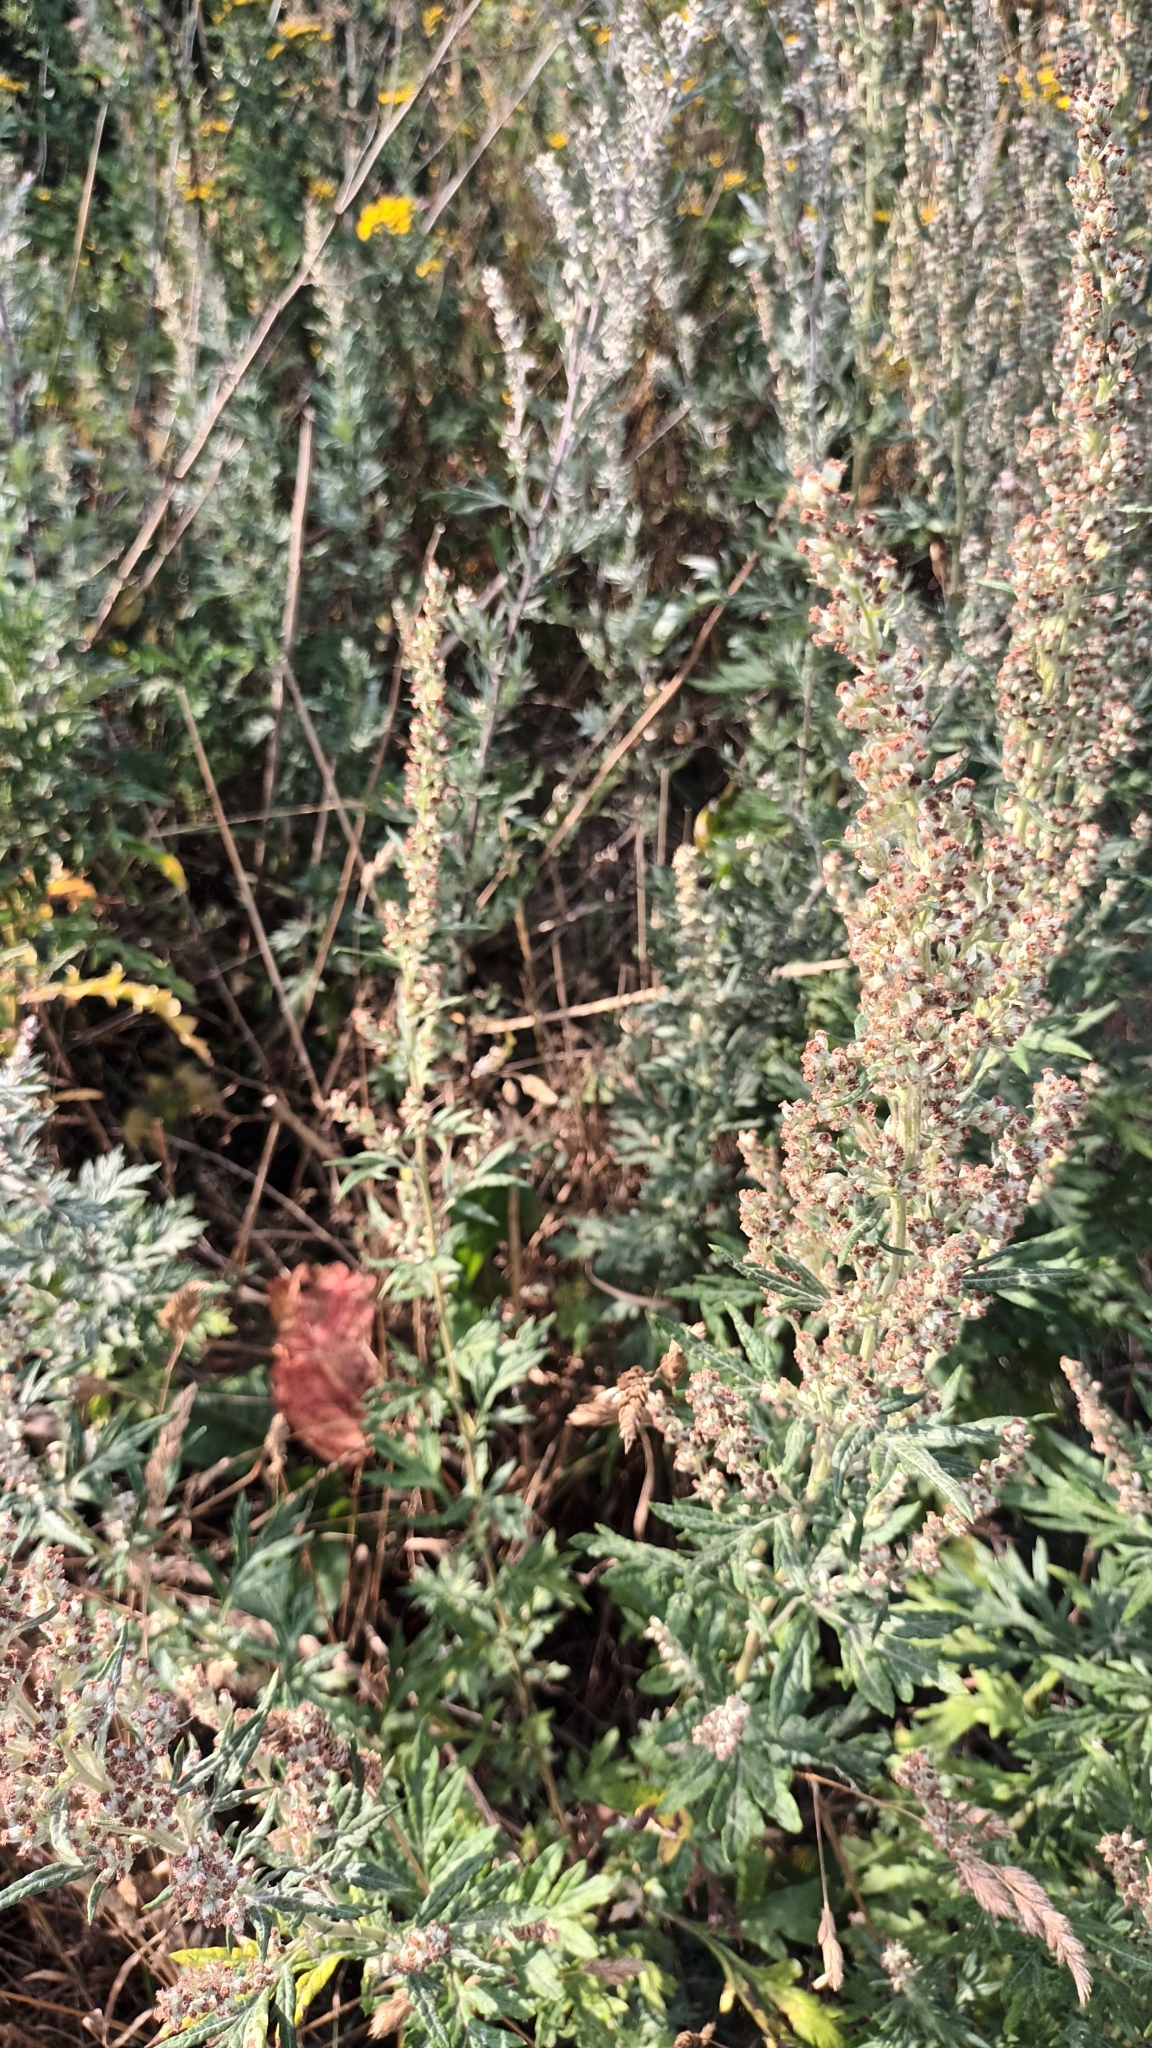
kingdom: Plantae
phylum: Tracheophyta
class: Magnoliopsida
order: Asterales
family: Asteraceae
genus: Artemisia
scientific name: Artemisia vulgaris
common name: Mugwort
